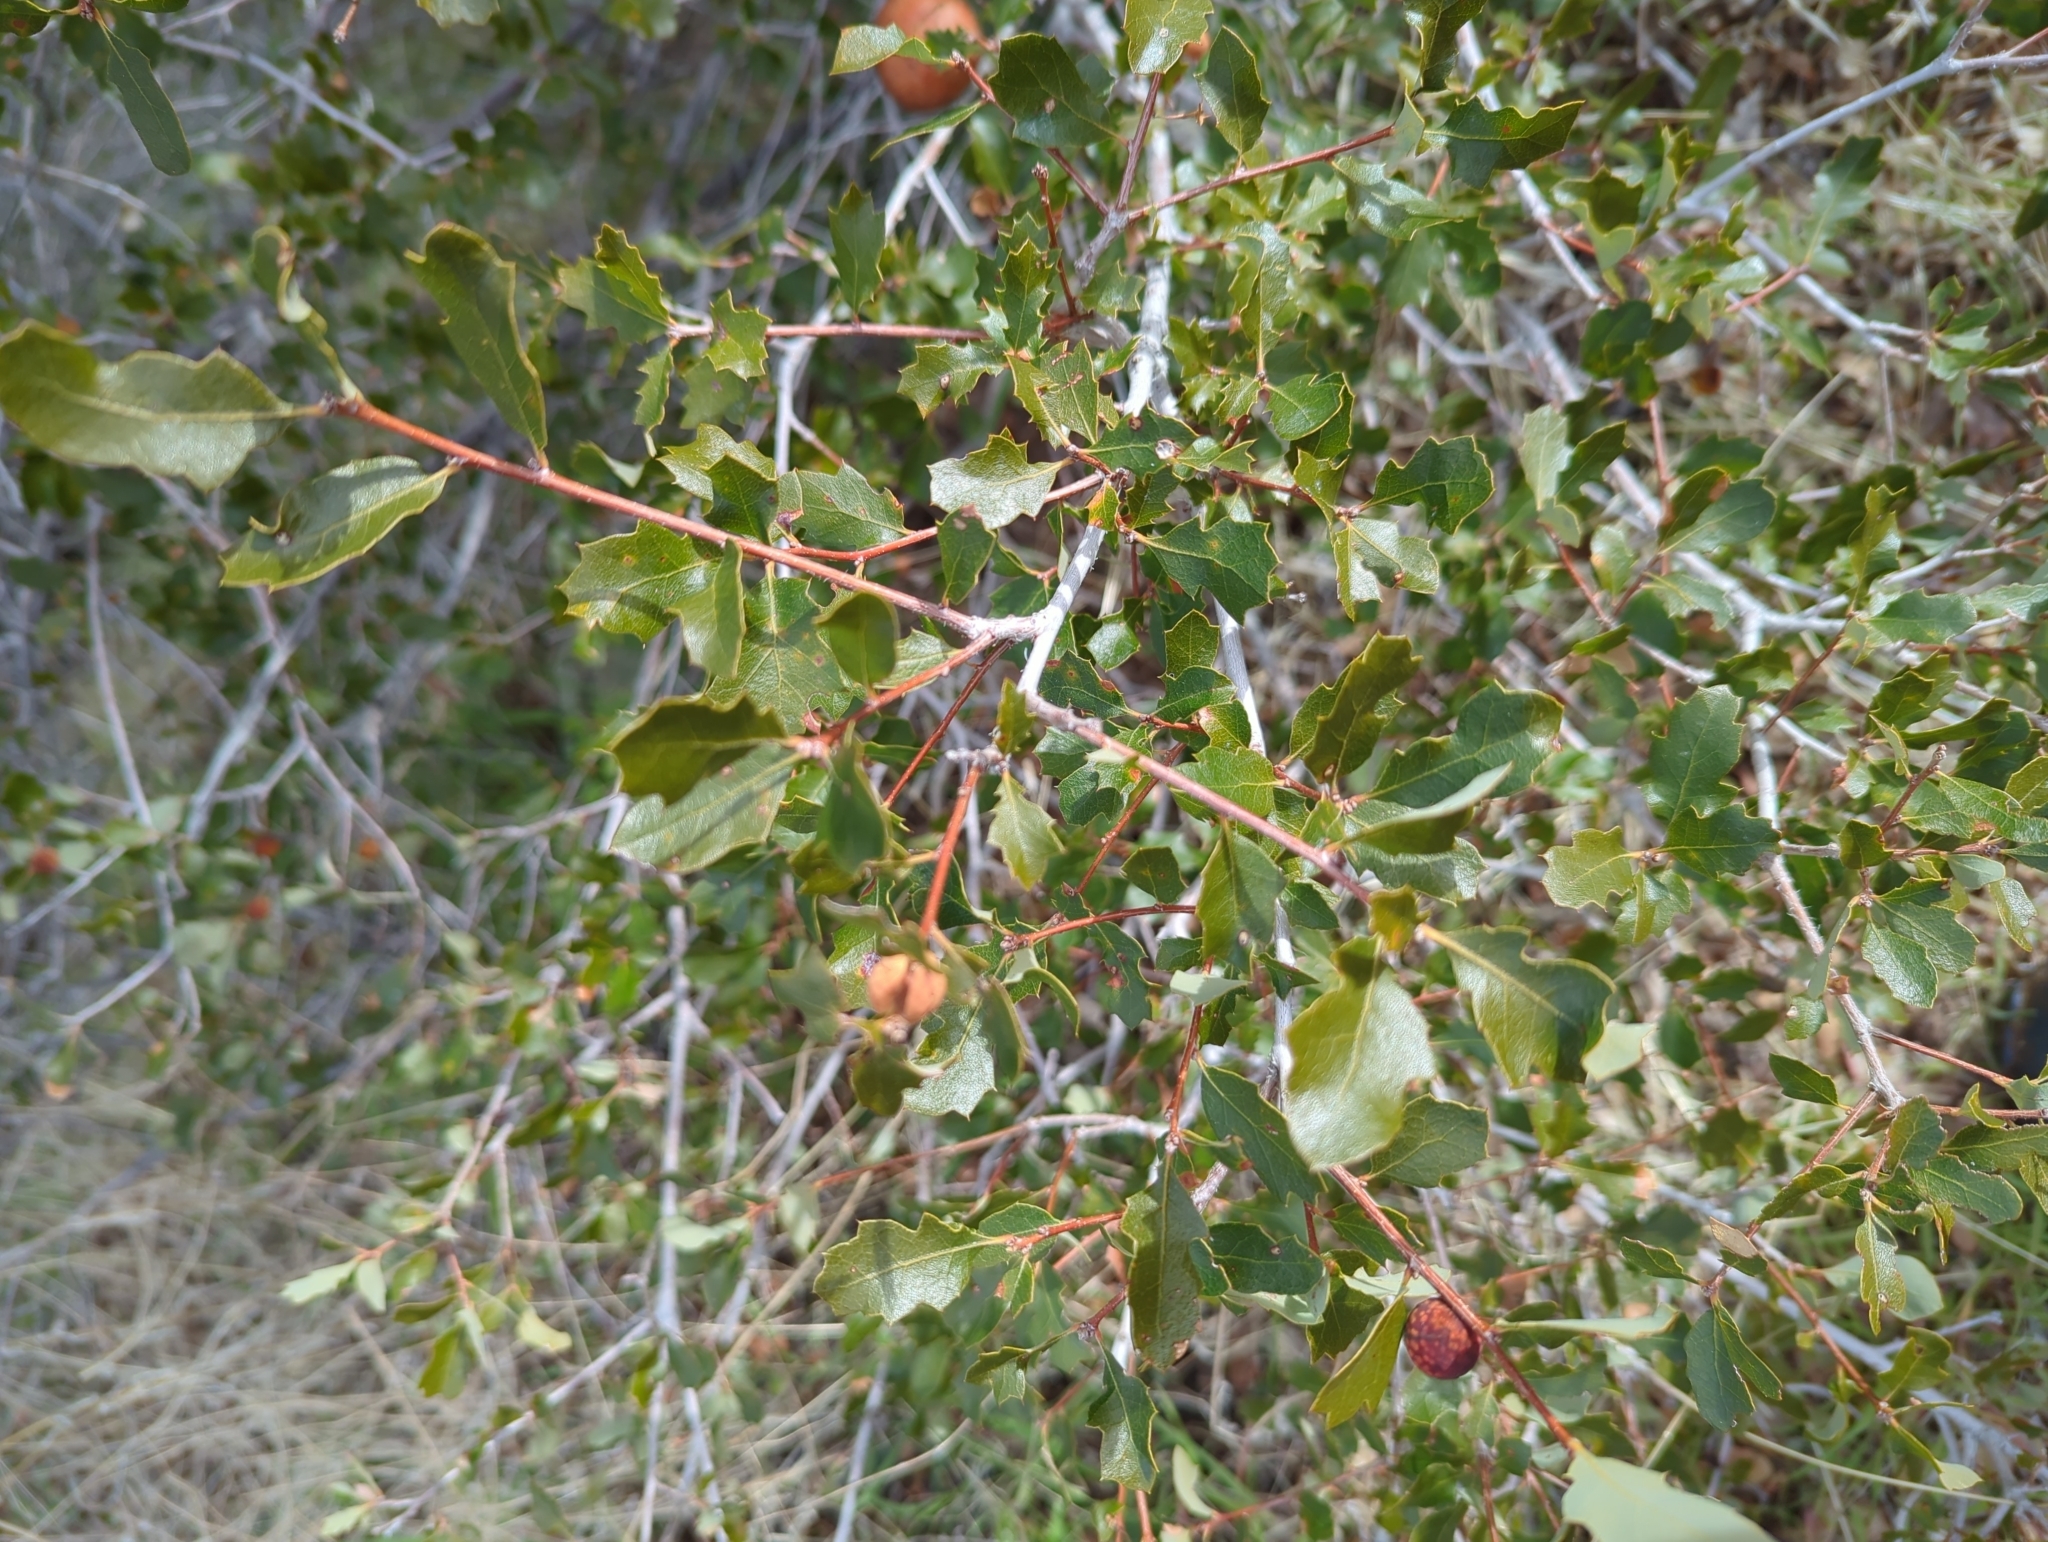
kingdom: Plantae
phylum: Tracheophyta
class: Magnoliopsida
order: Fagales
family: Fagaceae
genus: Quercus
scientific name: Quercus berberidifolia
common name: California scrub oak
